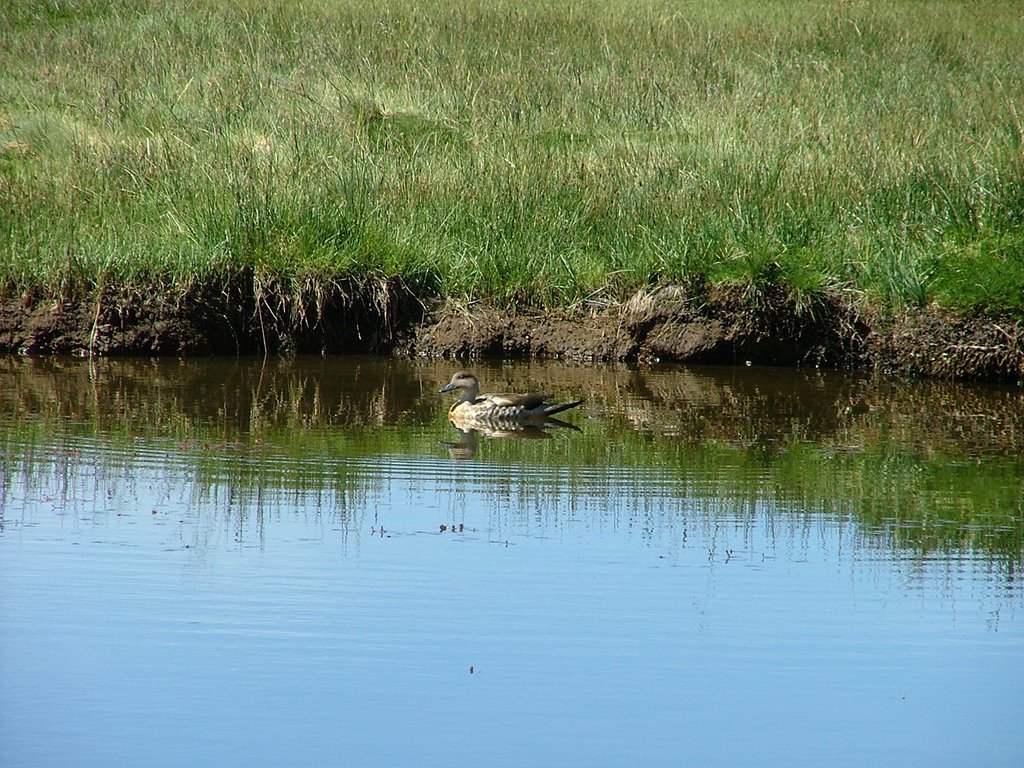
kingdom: Animalia
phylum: Chordata
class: Aves
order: Anseriformes
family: Anatidae
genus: Lophonetta
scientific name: Lophonetta specularioides
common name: Crested duck
